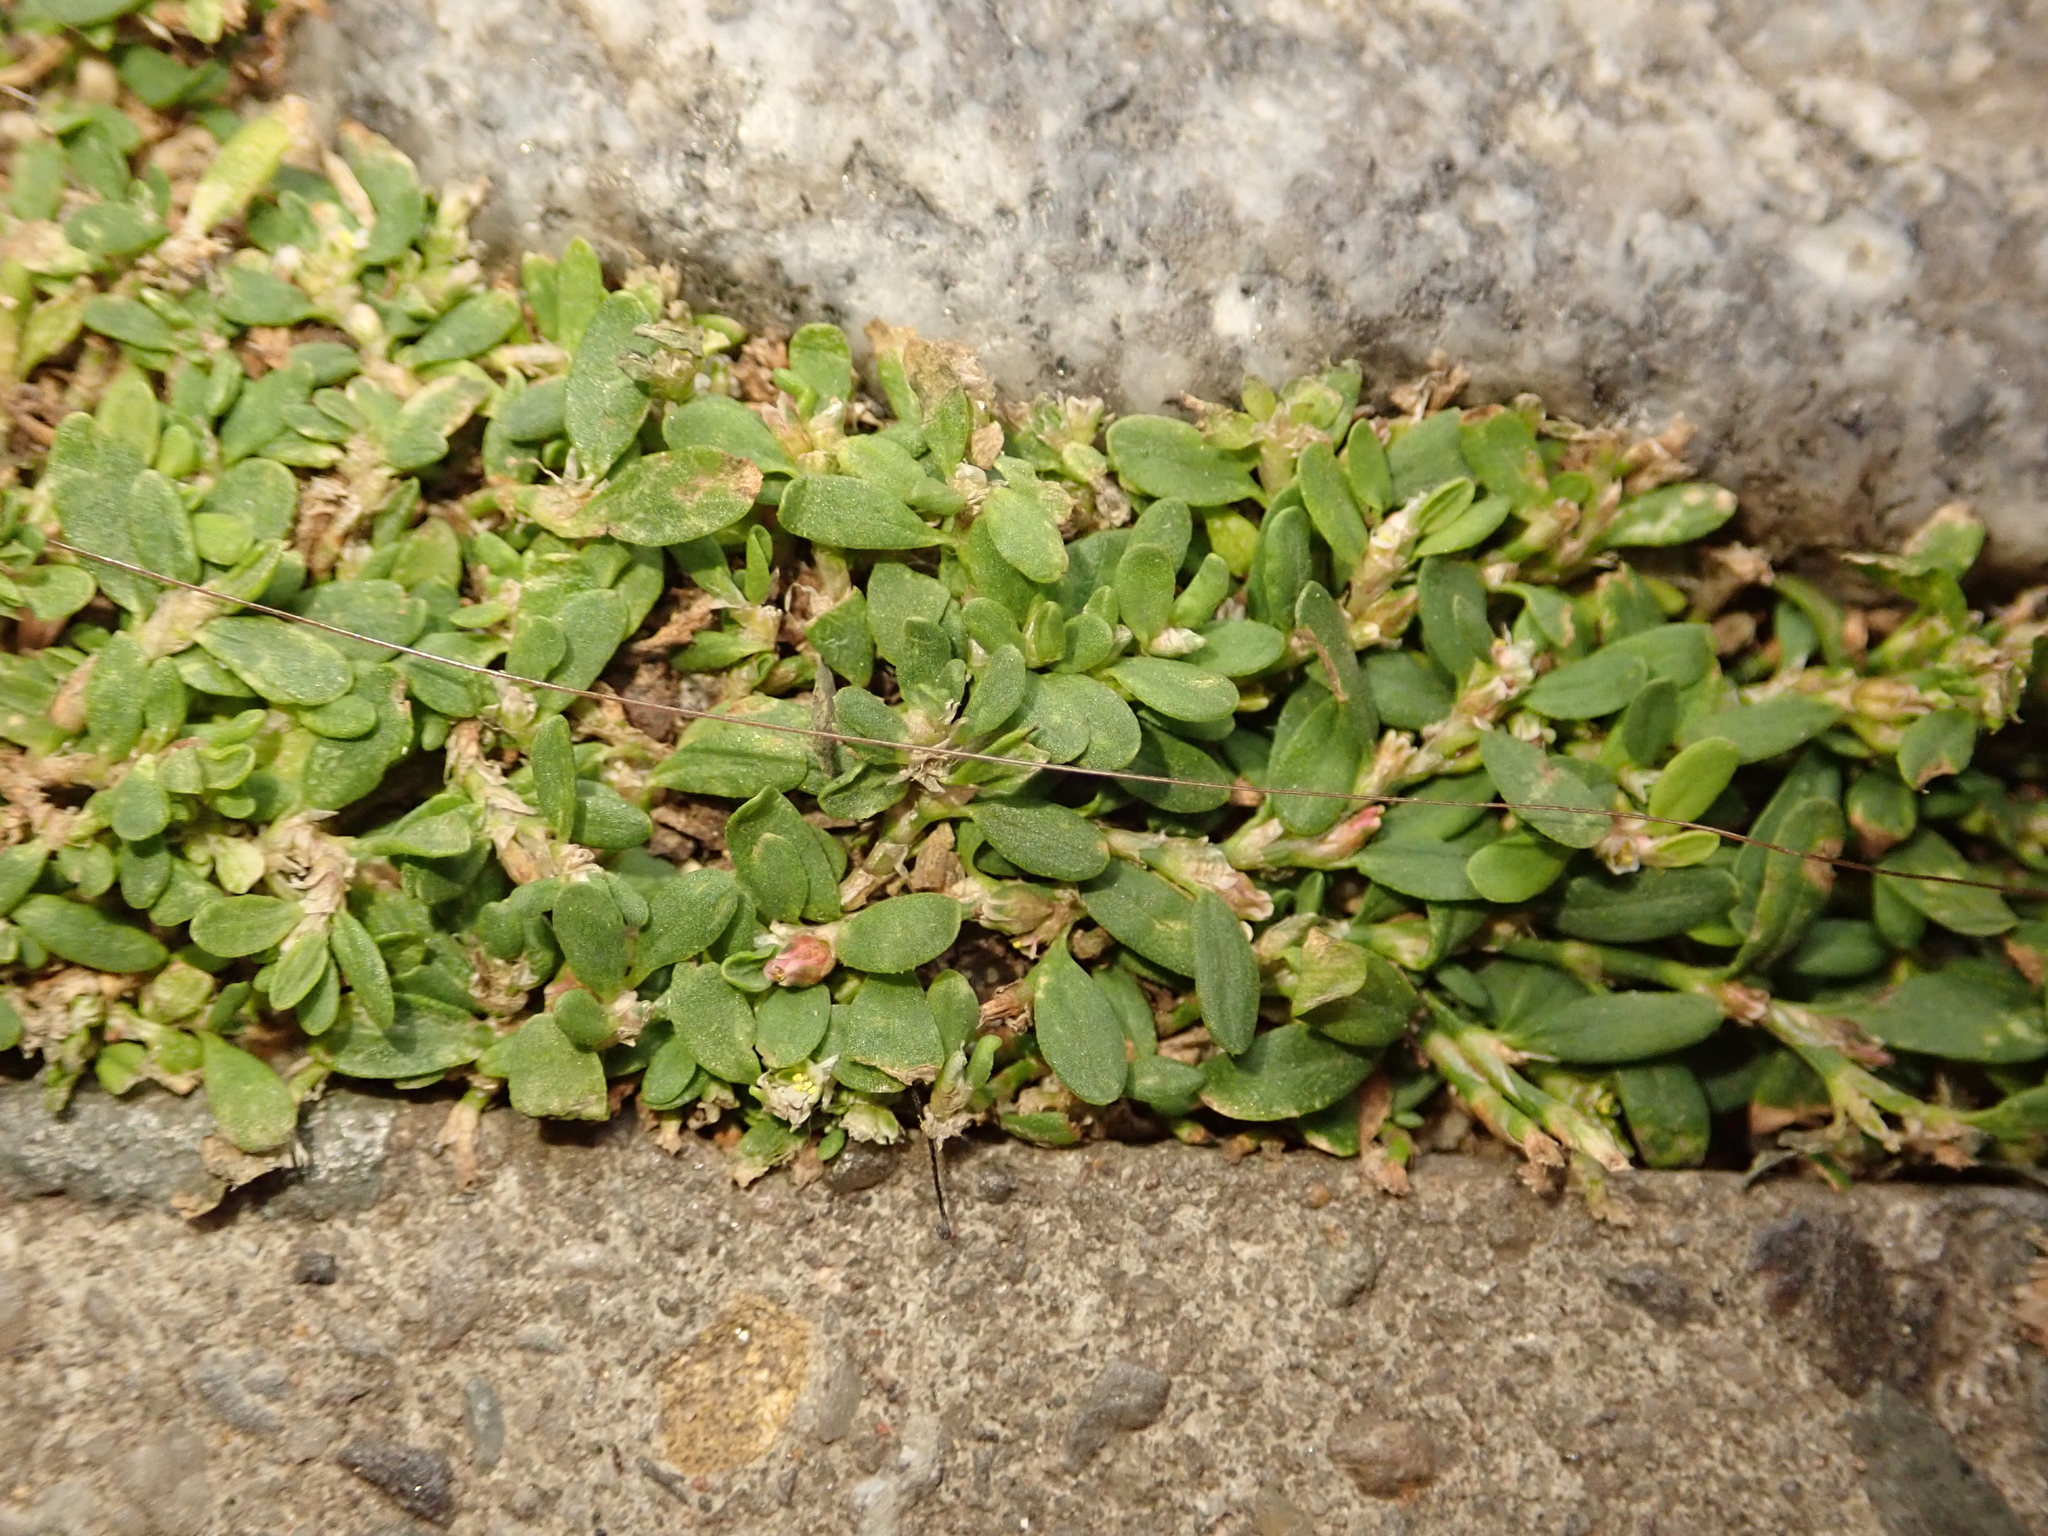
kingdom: Plantae
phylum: Tracheophyta
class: Magnoliopsida
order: Caryophyllales
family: Polygonaceae
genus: Polygonum
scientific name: Polygonum aviculare
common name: Prostrate knotweed
